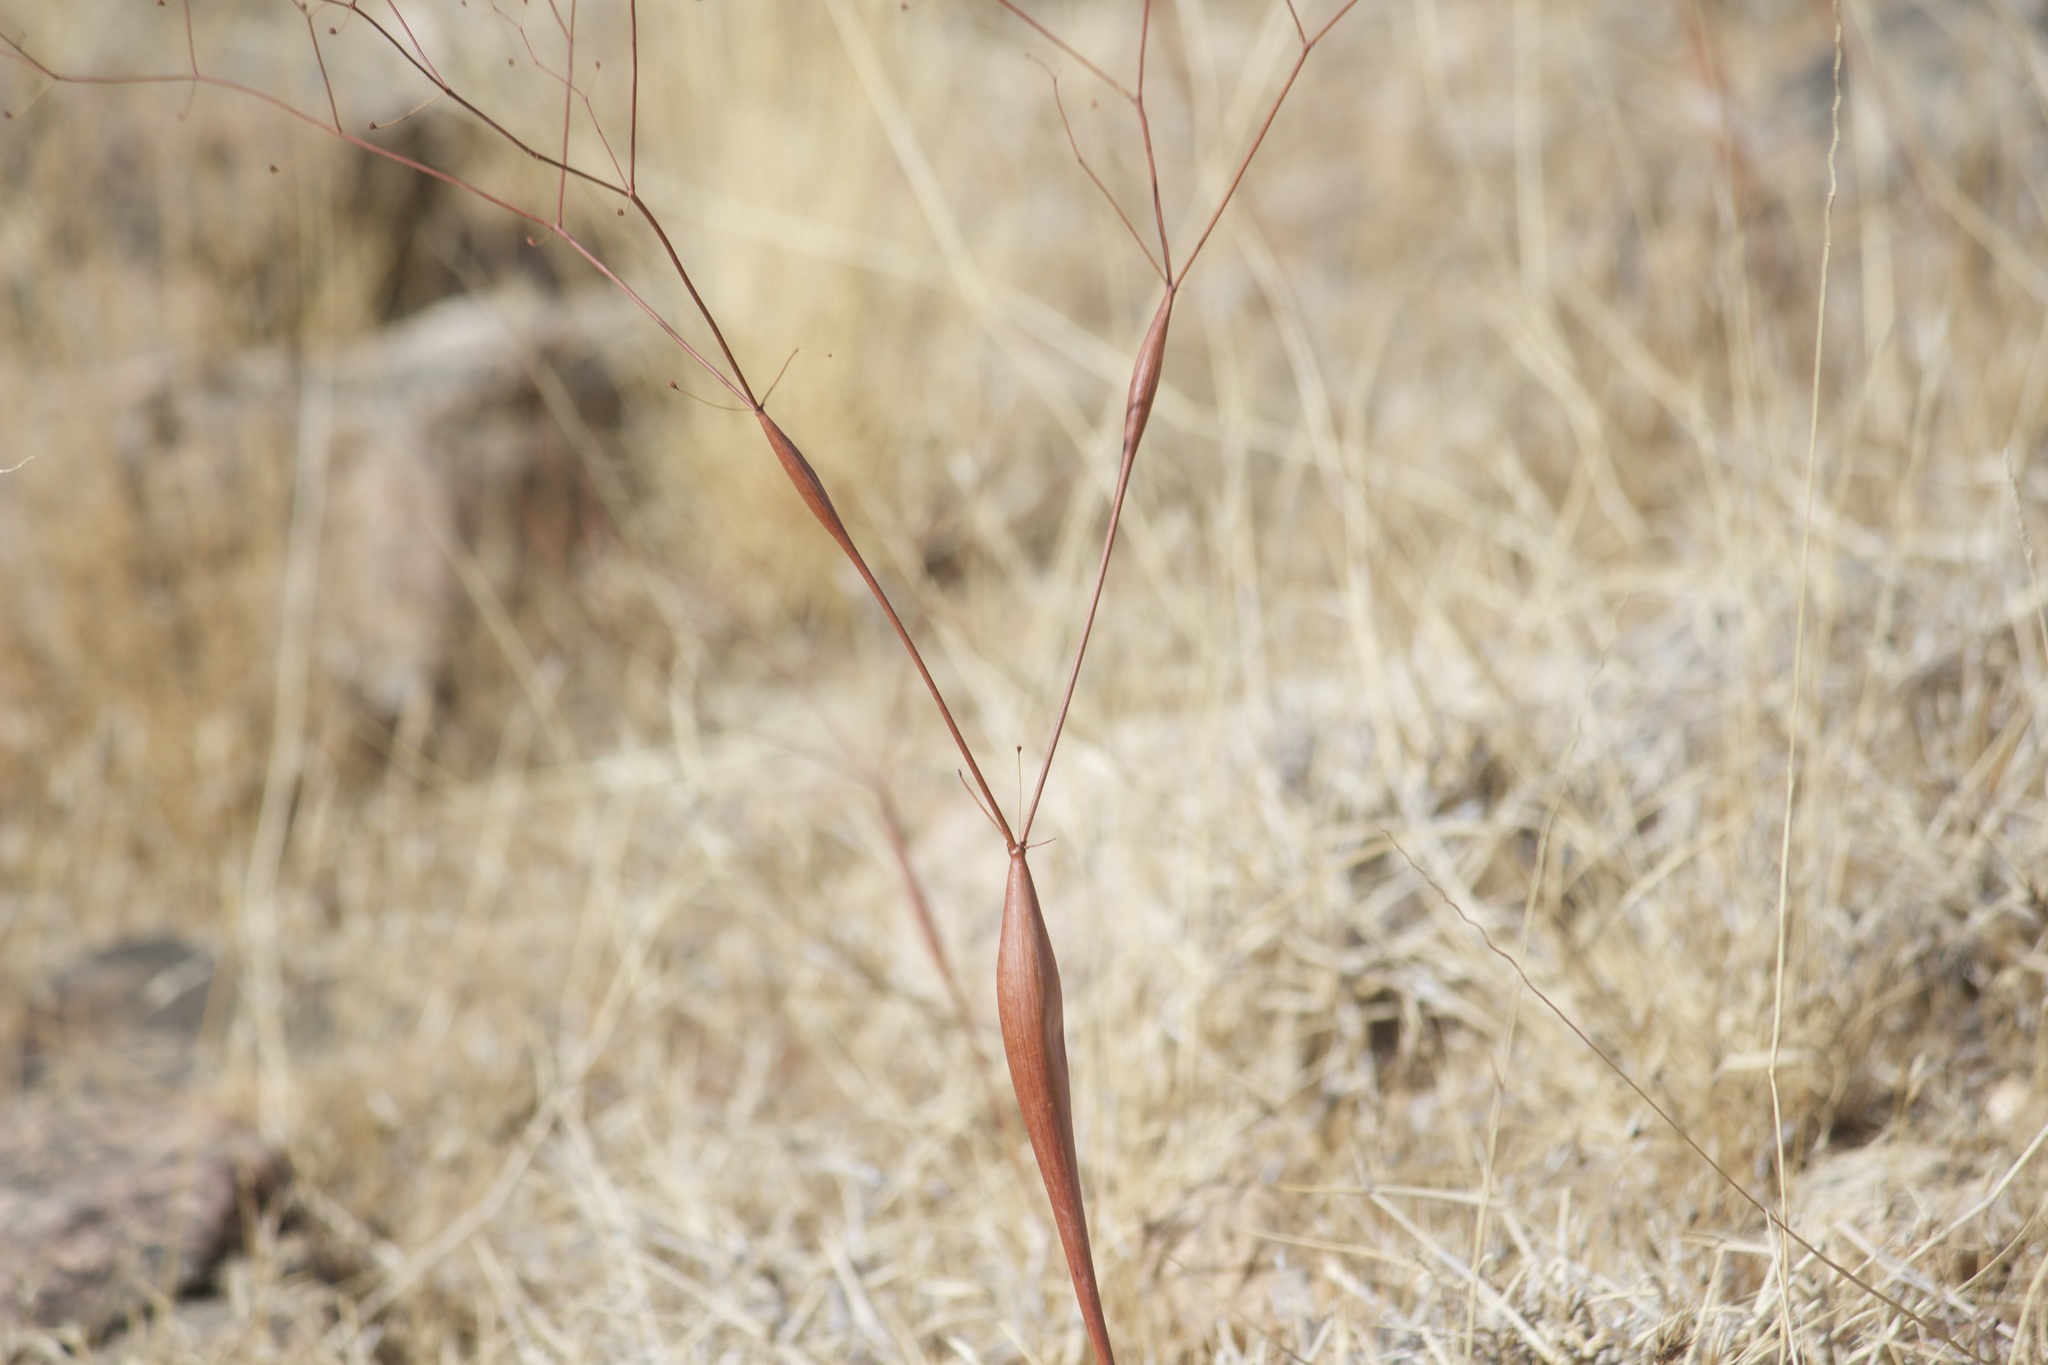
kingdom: Plantae
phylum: Tracheophyta
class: Magnoliopsida
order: Caryophyllales
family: Polygonaceae
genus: Eriogonum
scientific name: Eriogonum inflatum
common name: Desert trumpet
